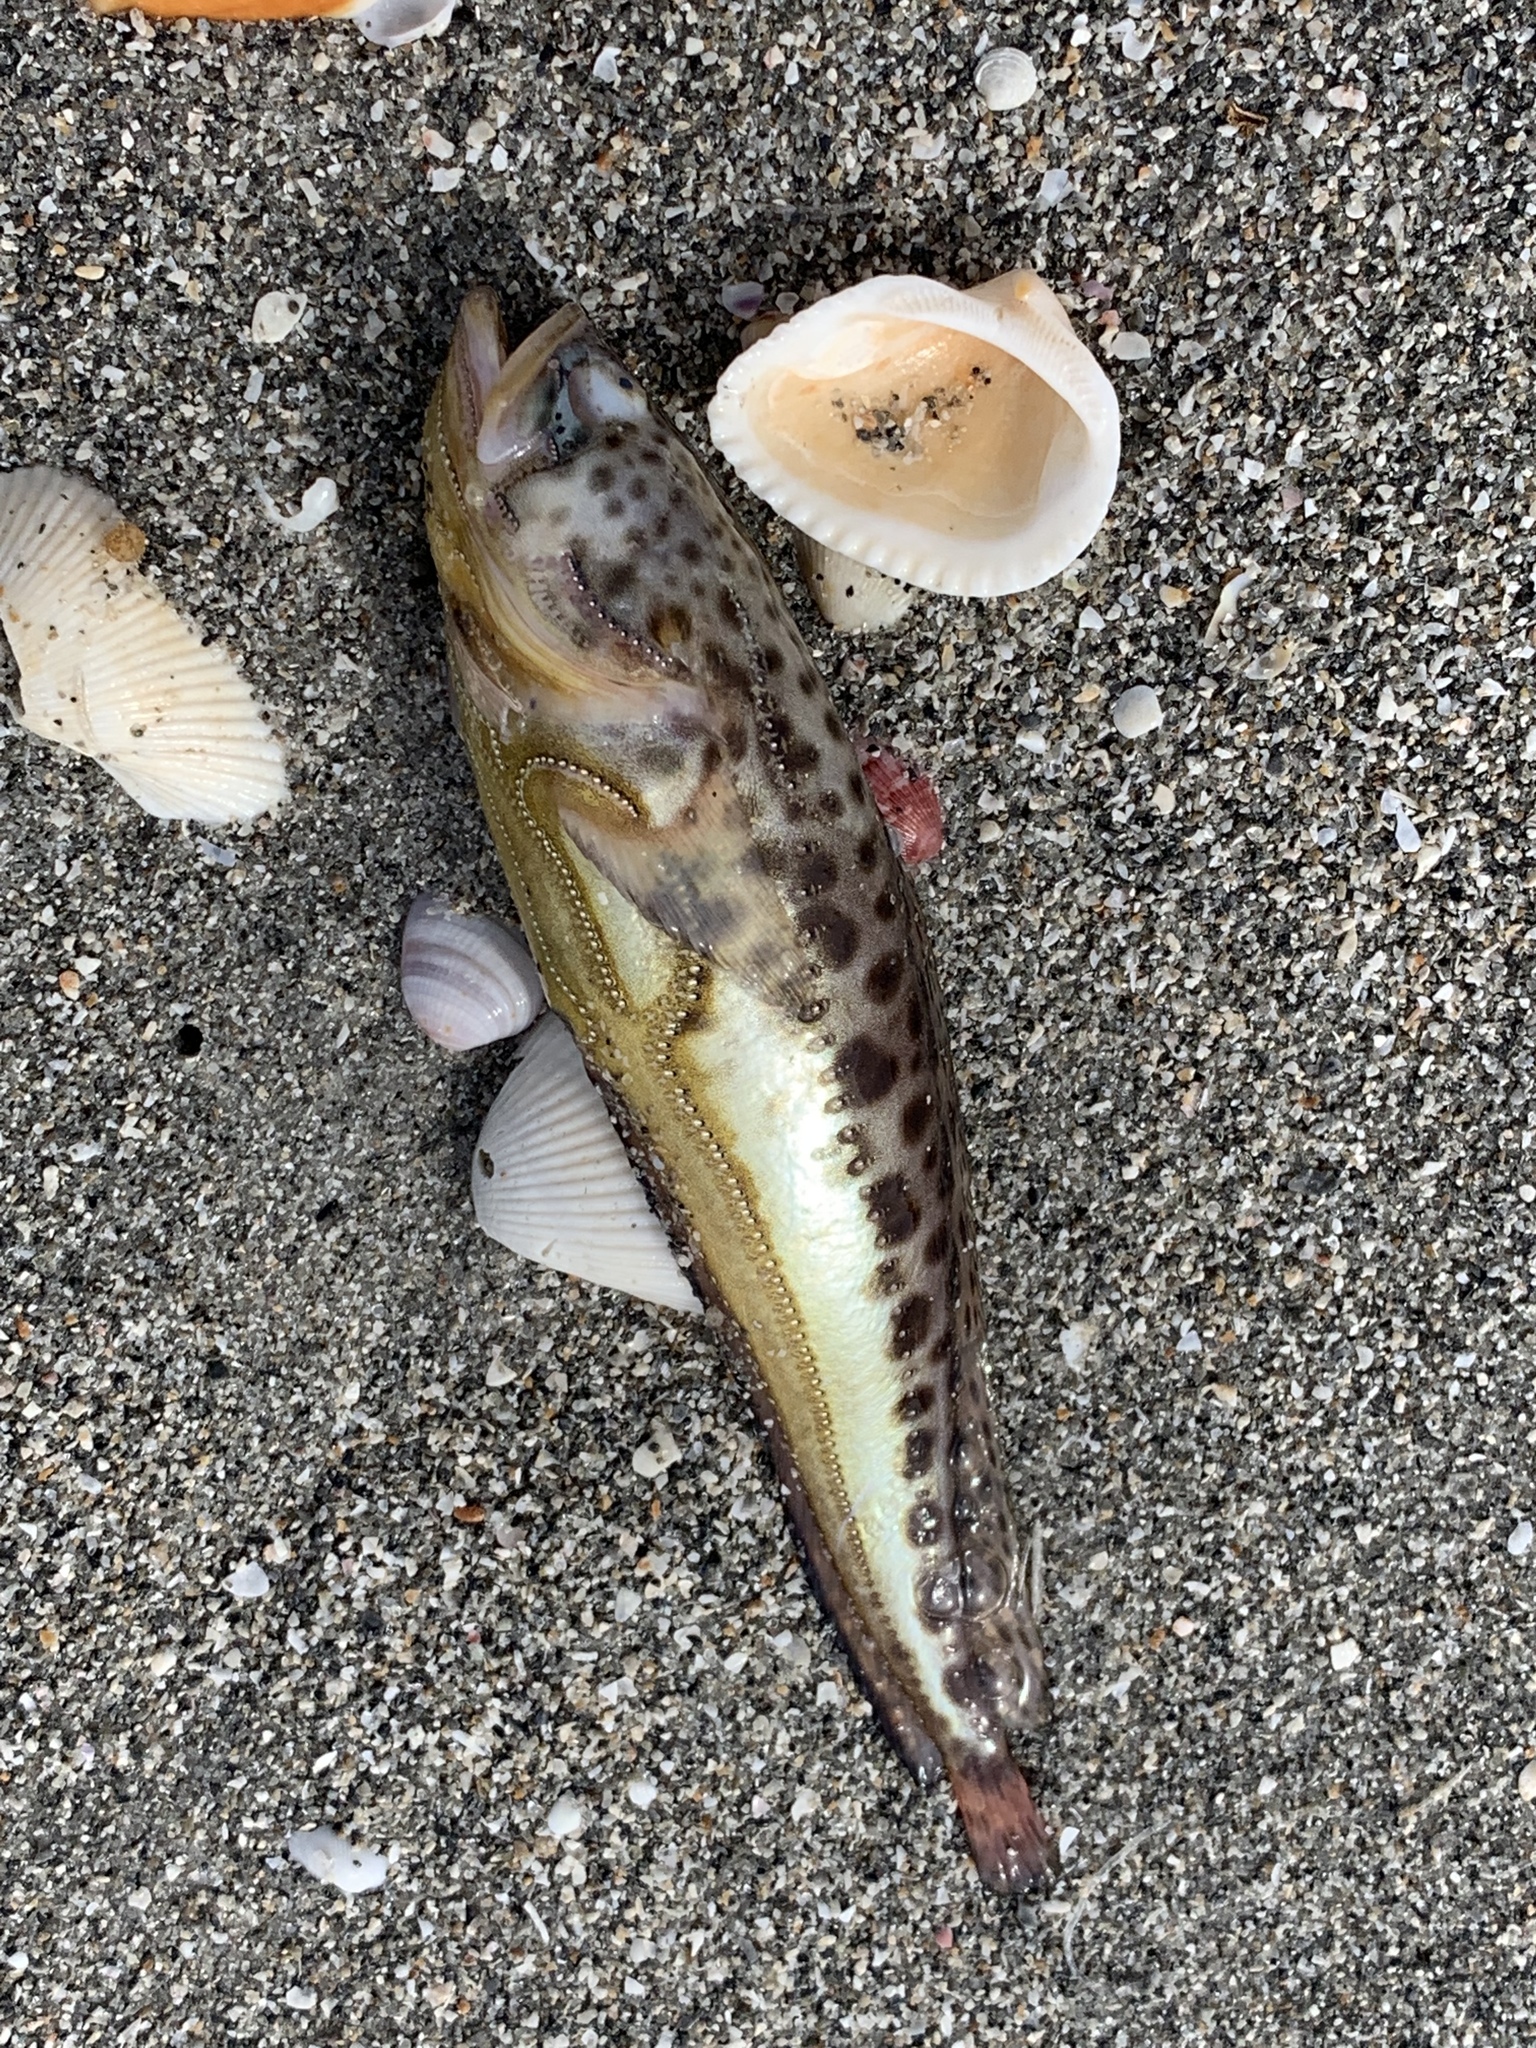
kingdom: Animalia
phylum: Chordata
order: Batrachoidiformes
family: Batrachoididae
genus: Porichthys
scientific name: Porichthys plectrodon
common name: Atlantic midshipman
